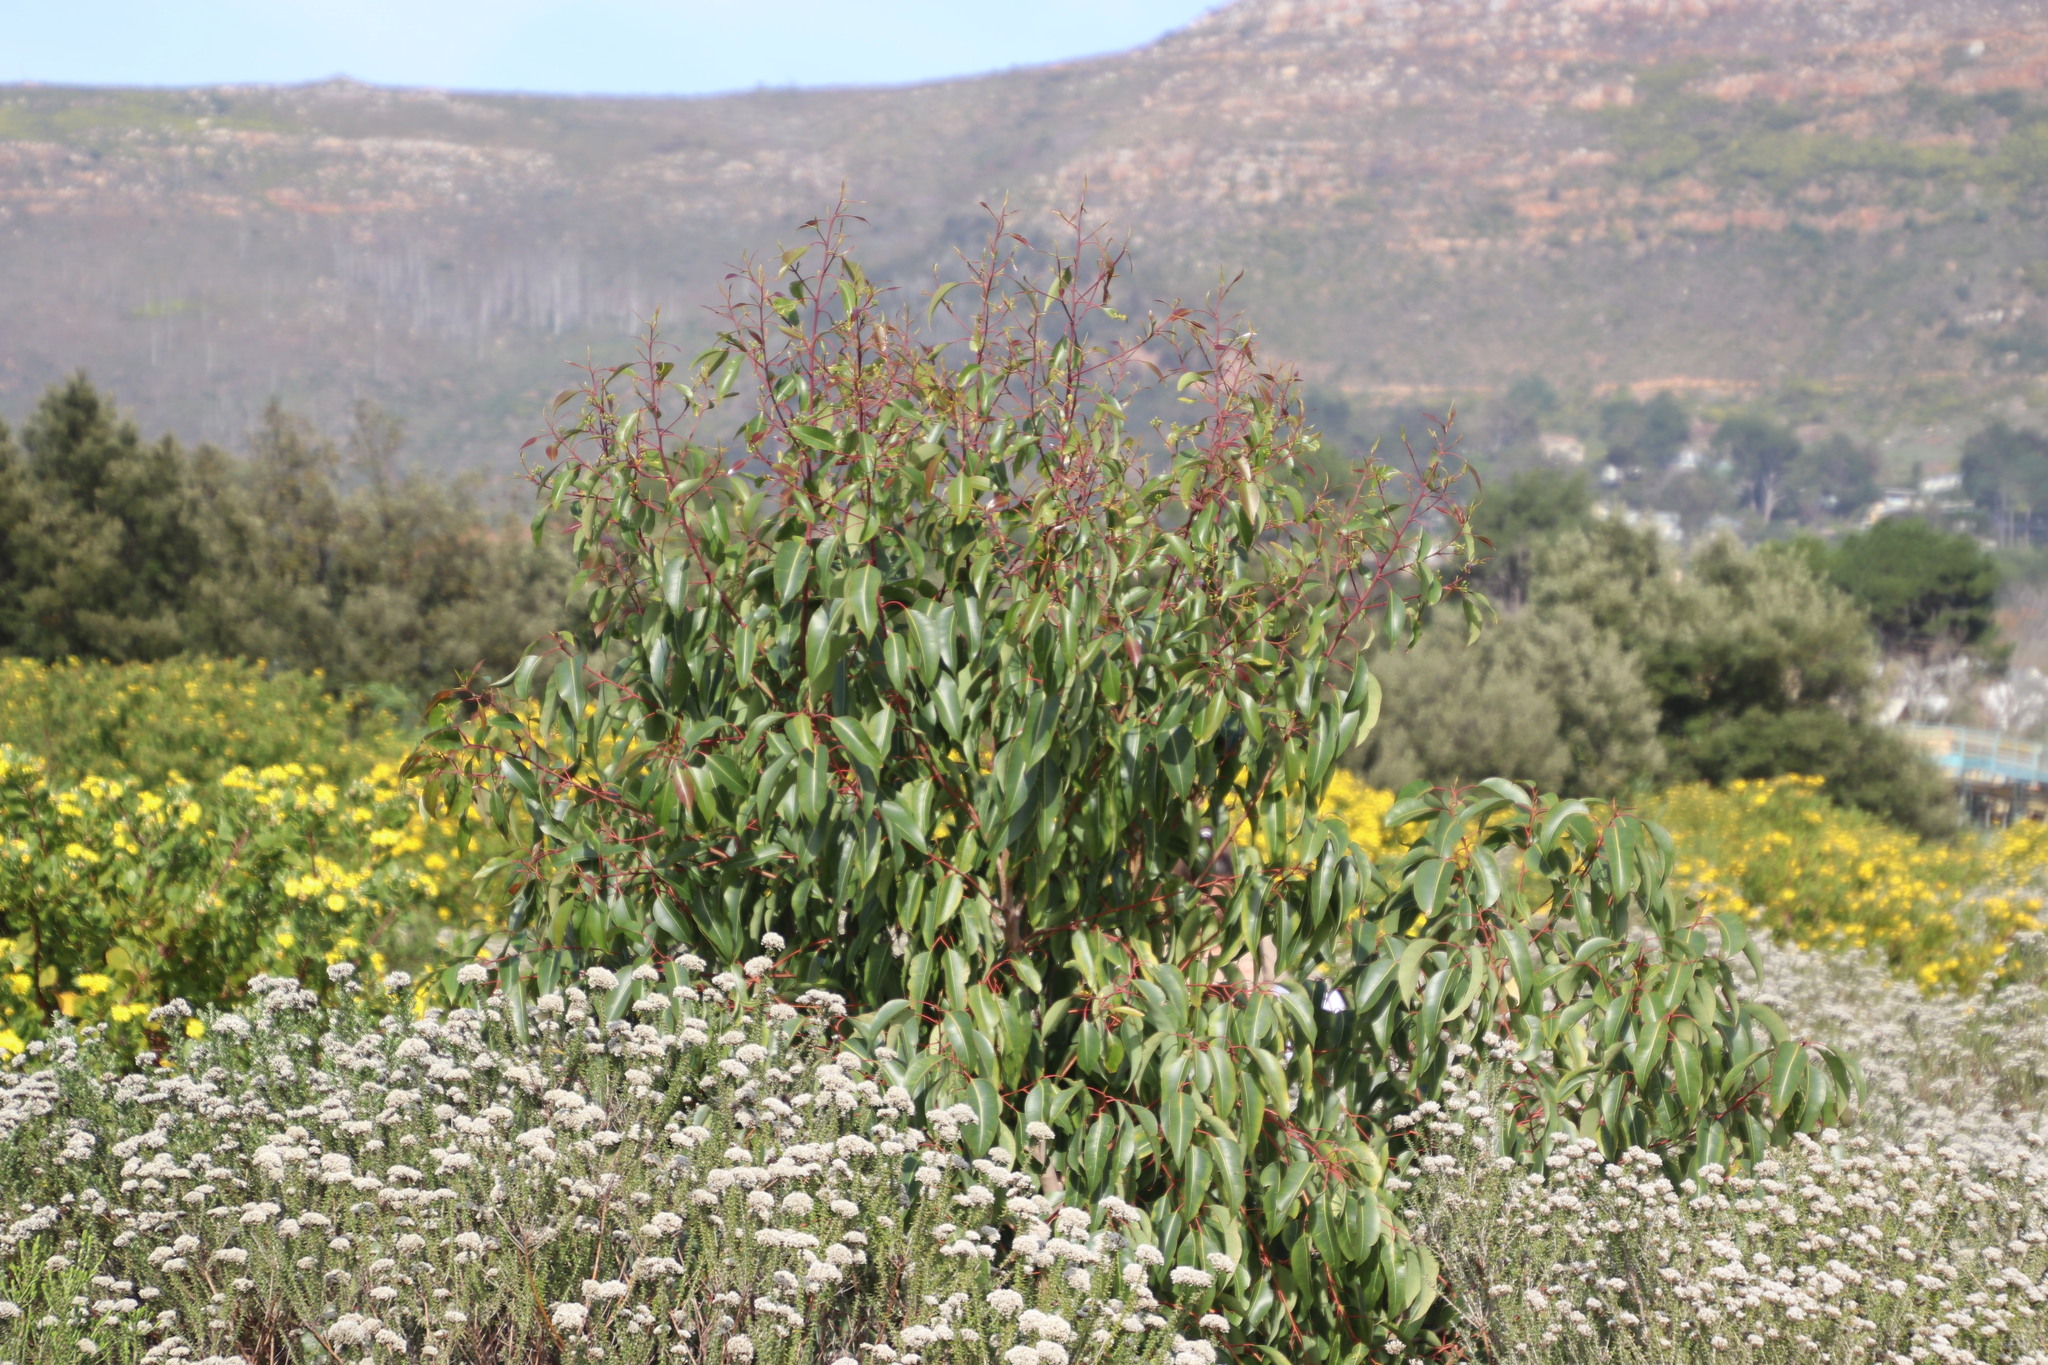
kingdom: Plantae
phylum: Tracheophyta
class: Magnoliopsida
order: Myrtales
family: Myrtaceae
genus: Corymbia
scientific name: Corymbia ficifolia
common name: Redflower gum
